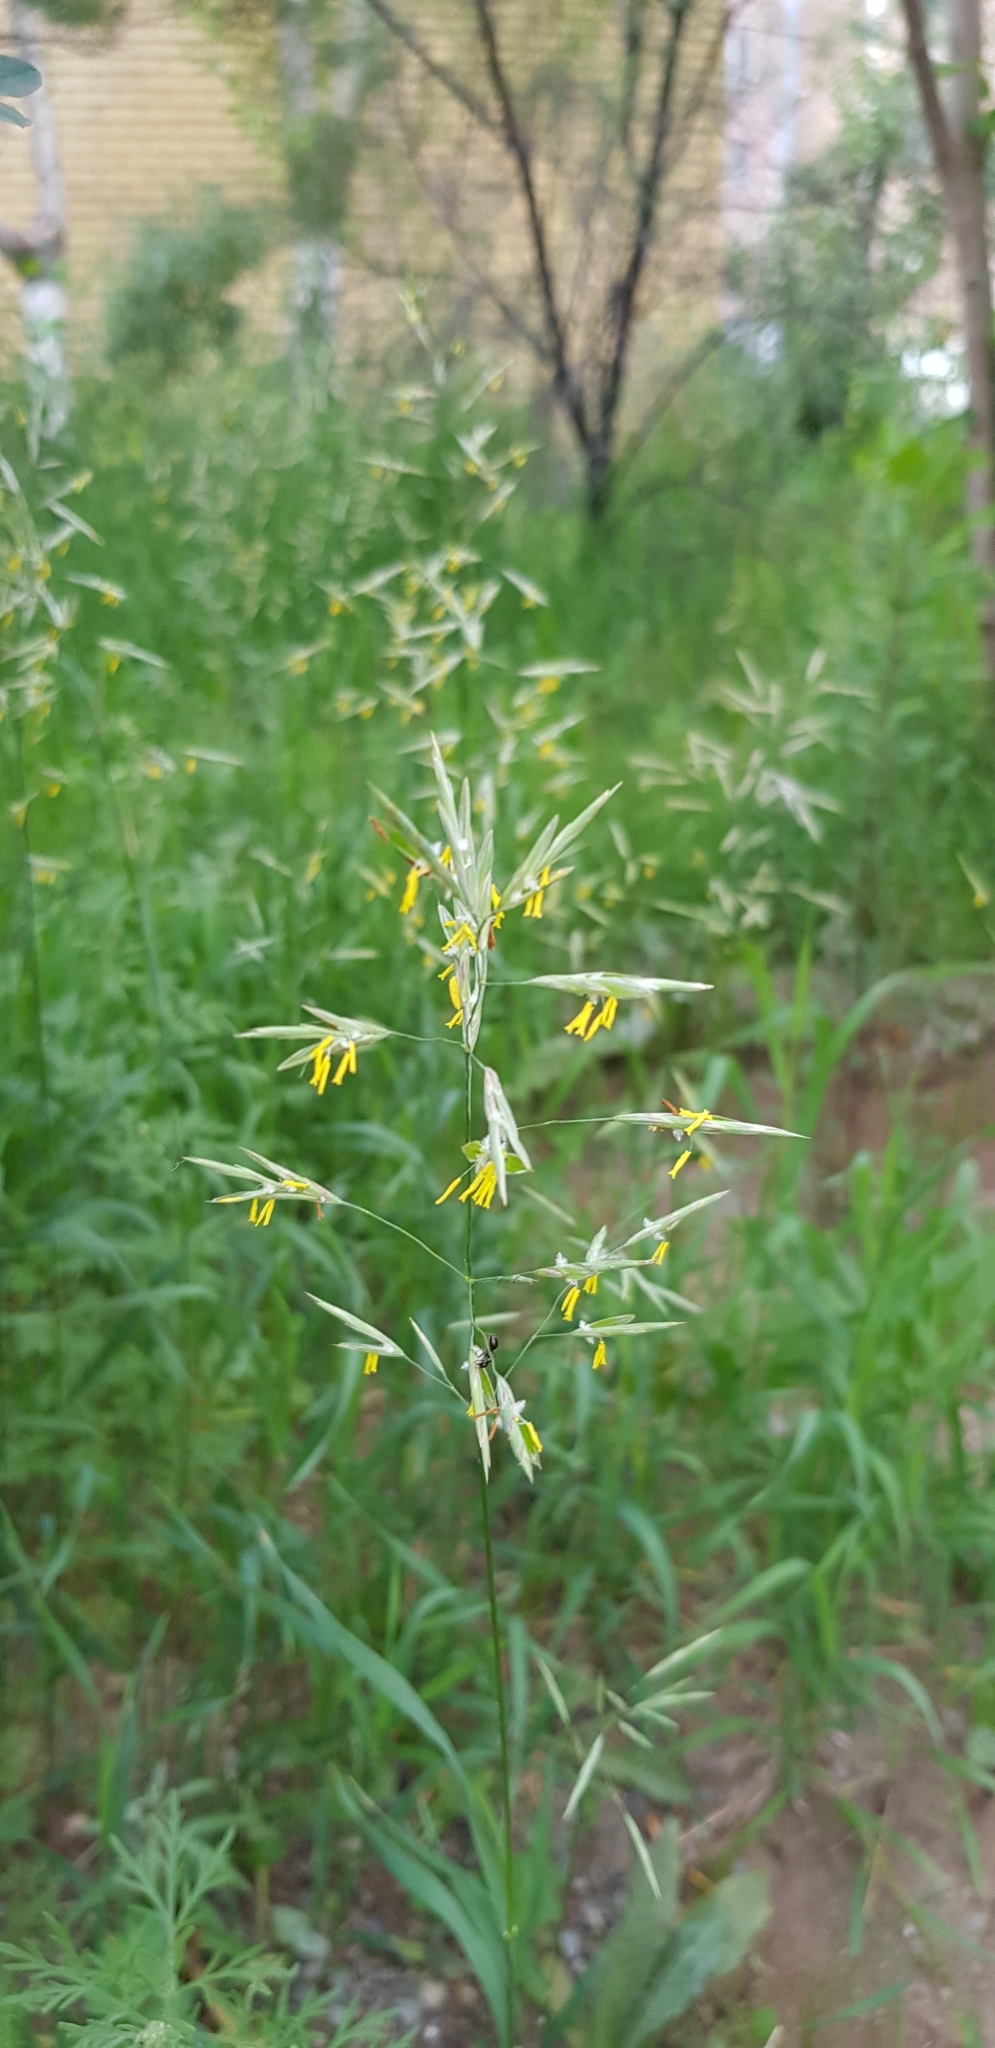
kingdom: Plantae
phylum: Tracheophyta
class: Liliopsida
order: Poales
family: Poaceae
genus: Bromus
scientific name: Bromus inermis
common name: Smooth brome
